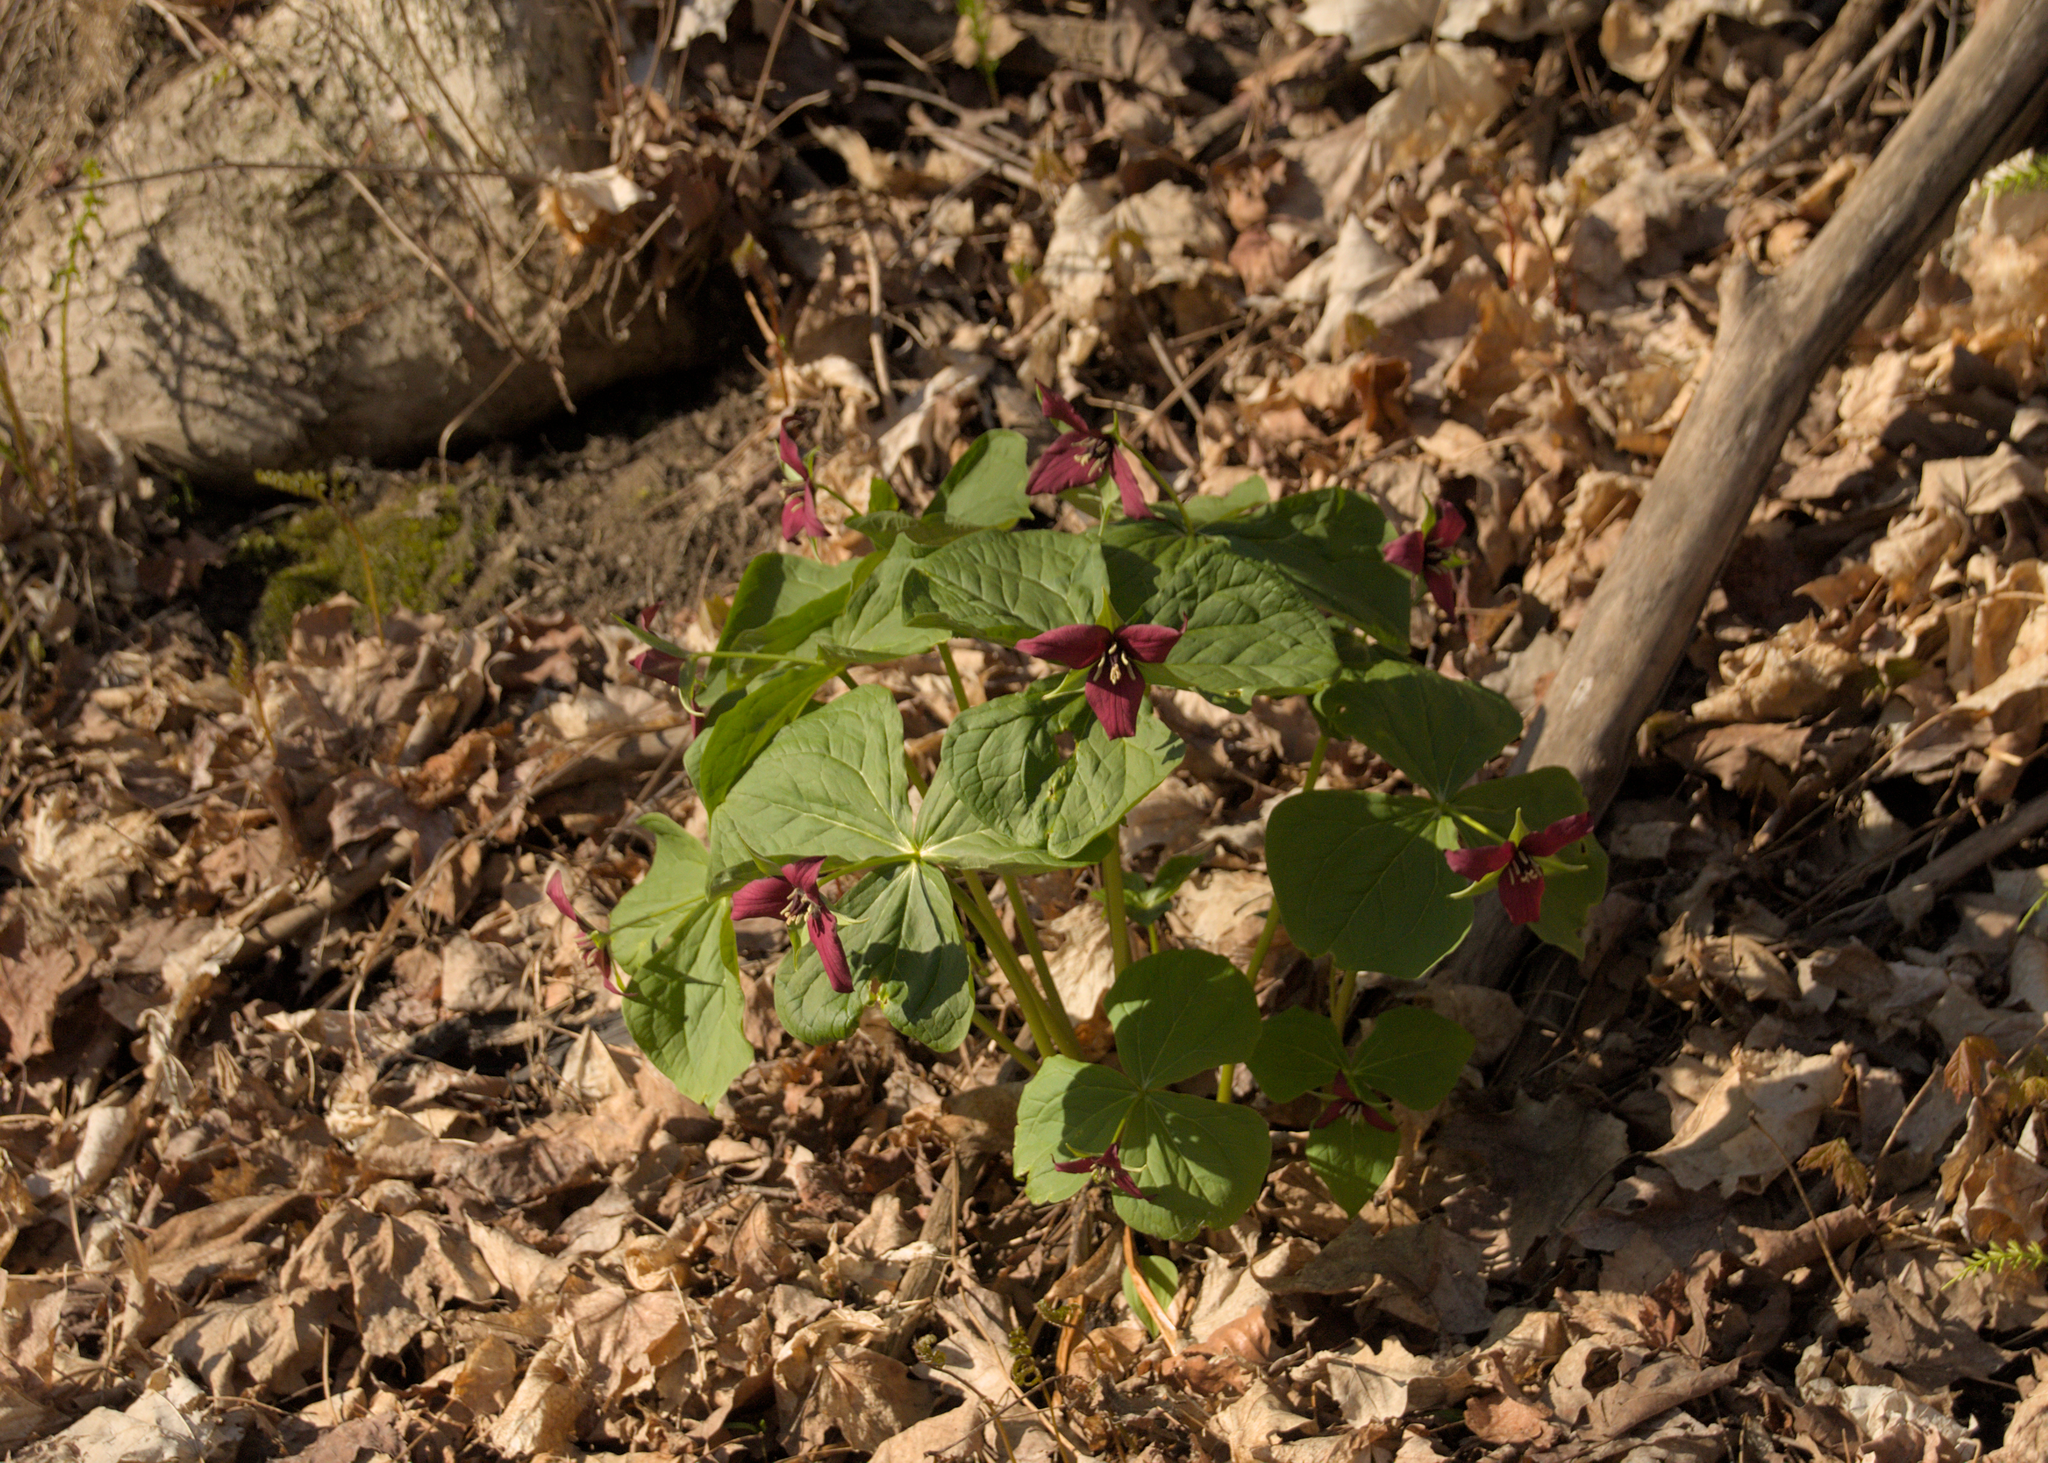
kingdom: Plantae
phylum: Tracheophyta
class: Liliopsida
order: Liliales
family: Melanthiaceae
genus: Trillium
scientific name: Trillium erectum
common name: Purple trillium
